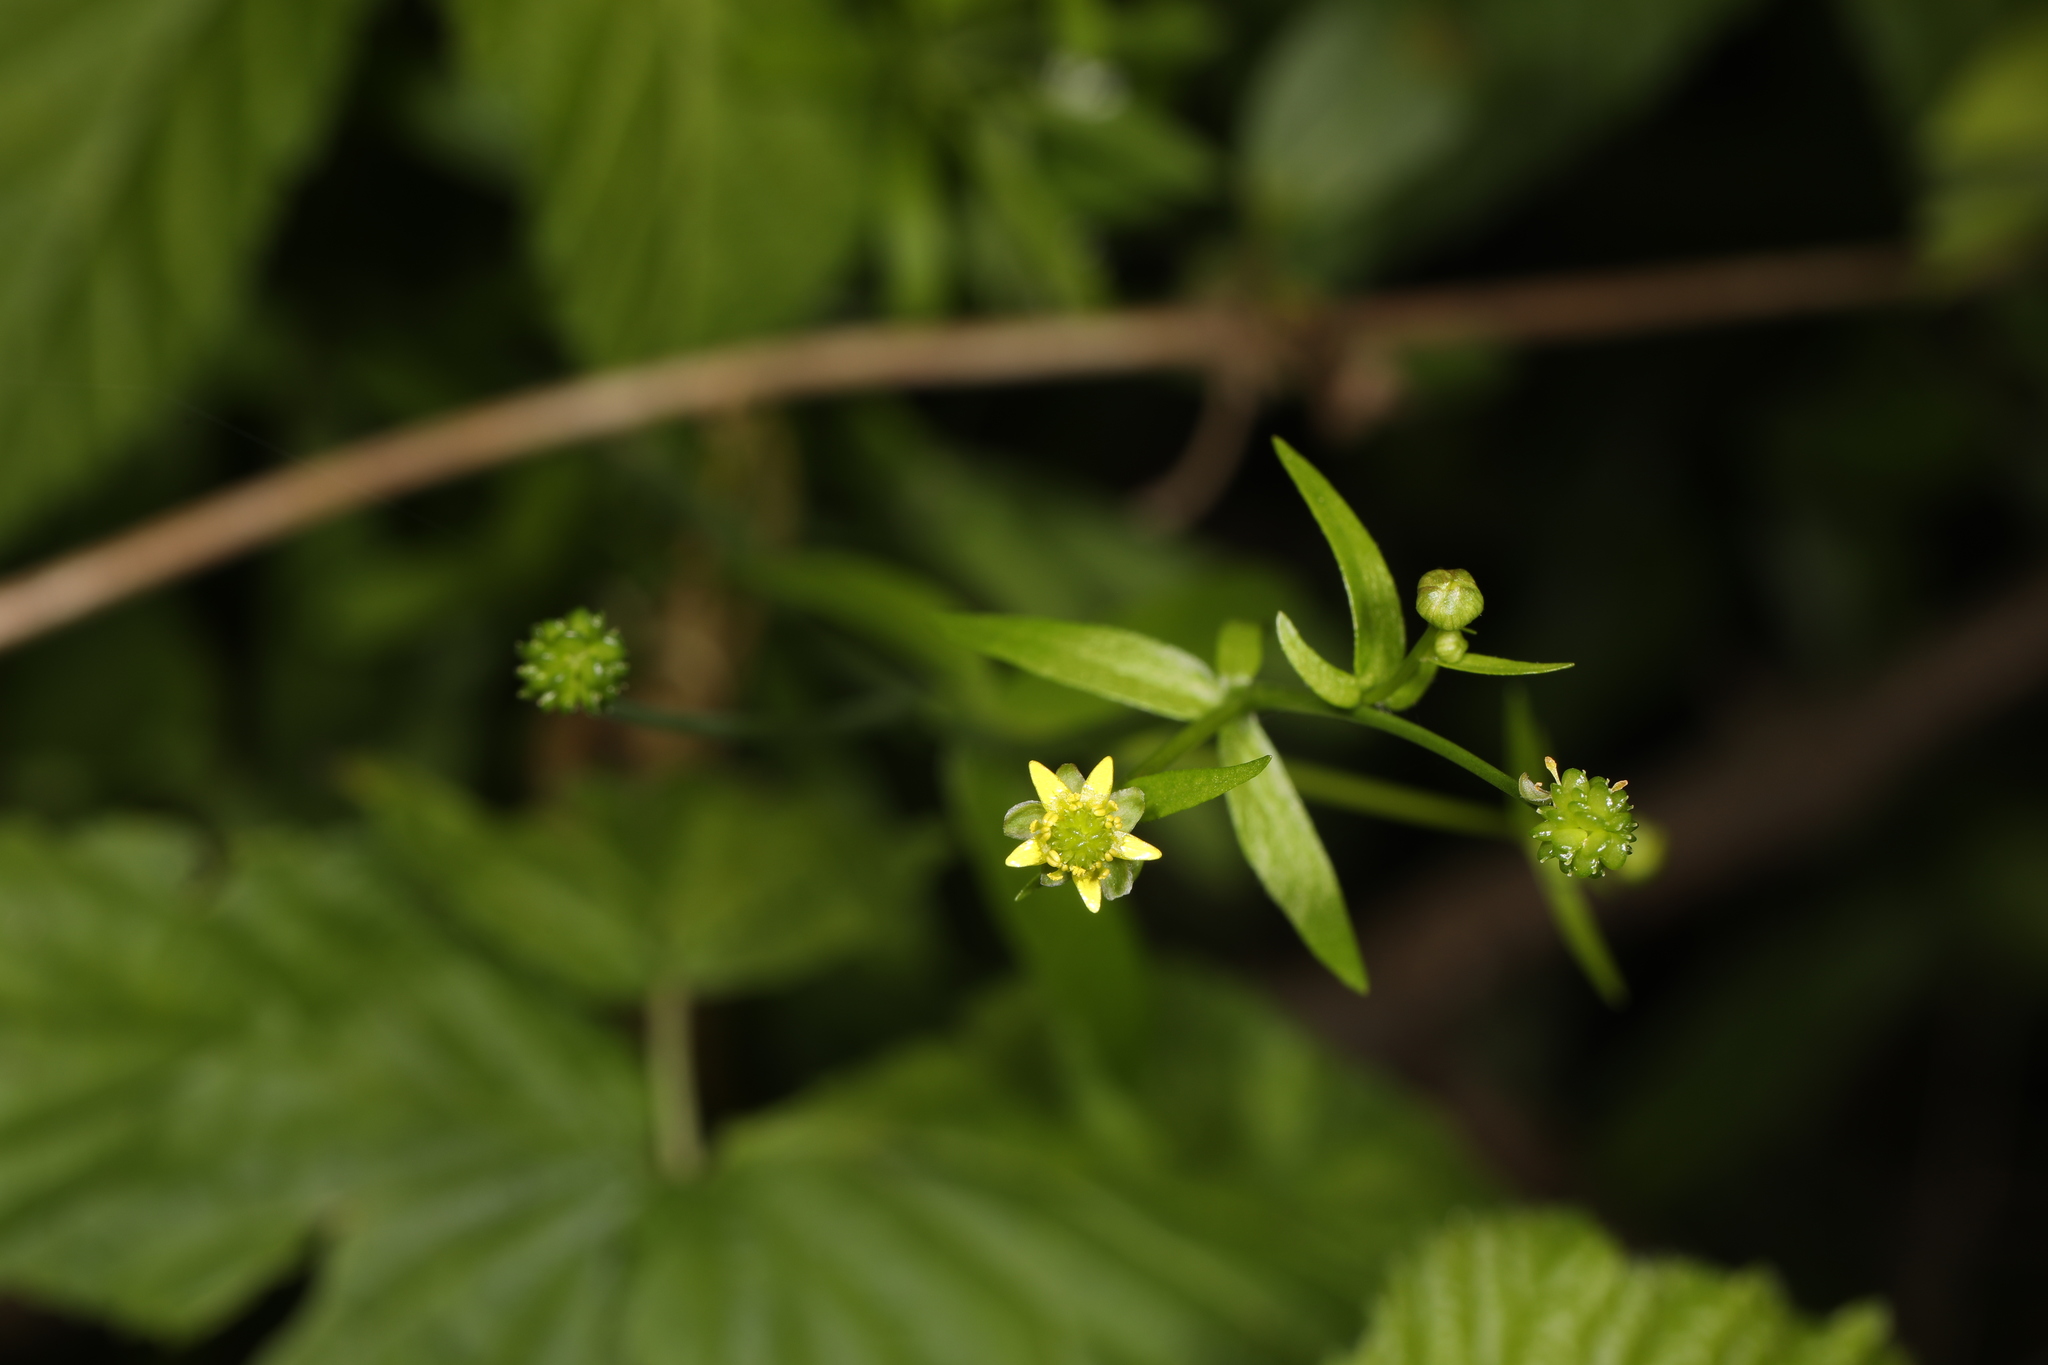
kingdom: Plantae
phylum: Tracheophyta
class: Magnoliopsida
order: Ranunculales
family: Ranunculaceae
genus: Ranunculus
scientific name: Ranunculus abortivus
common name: Early wood buttercup
